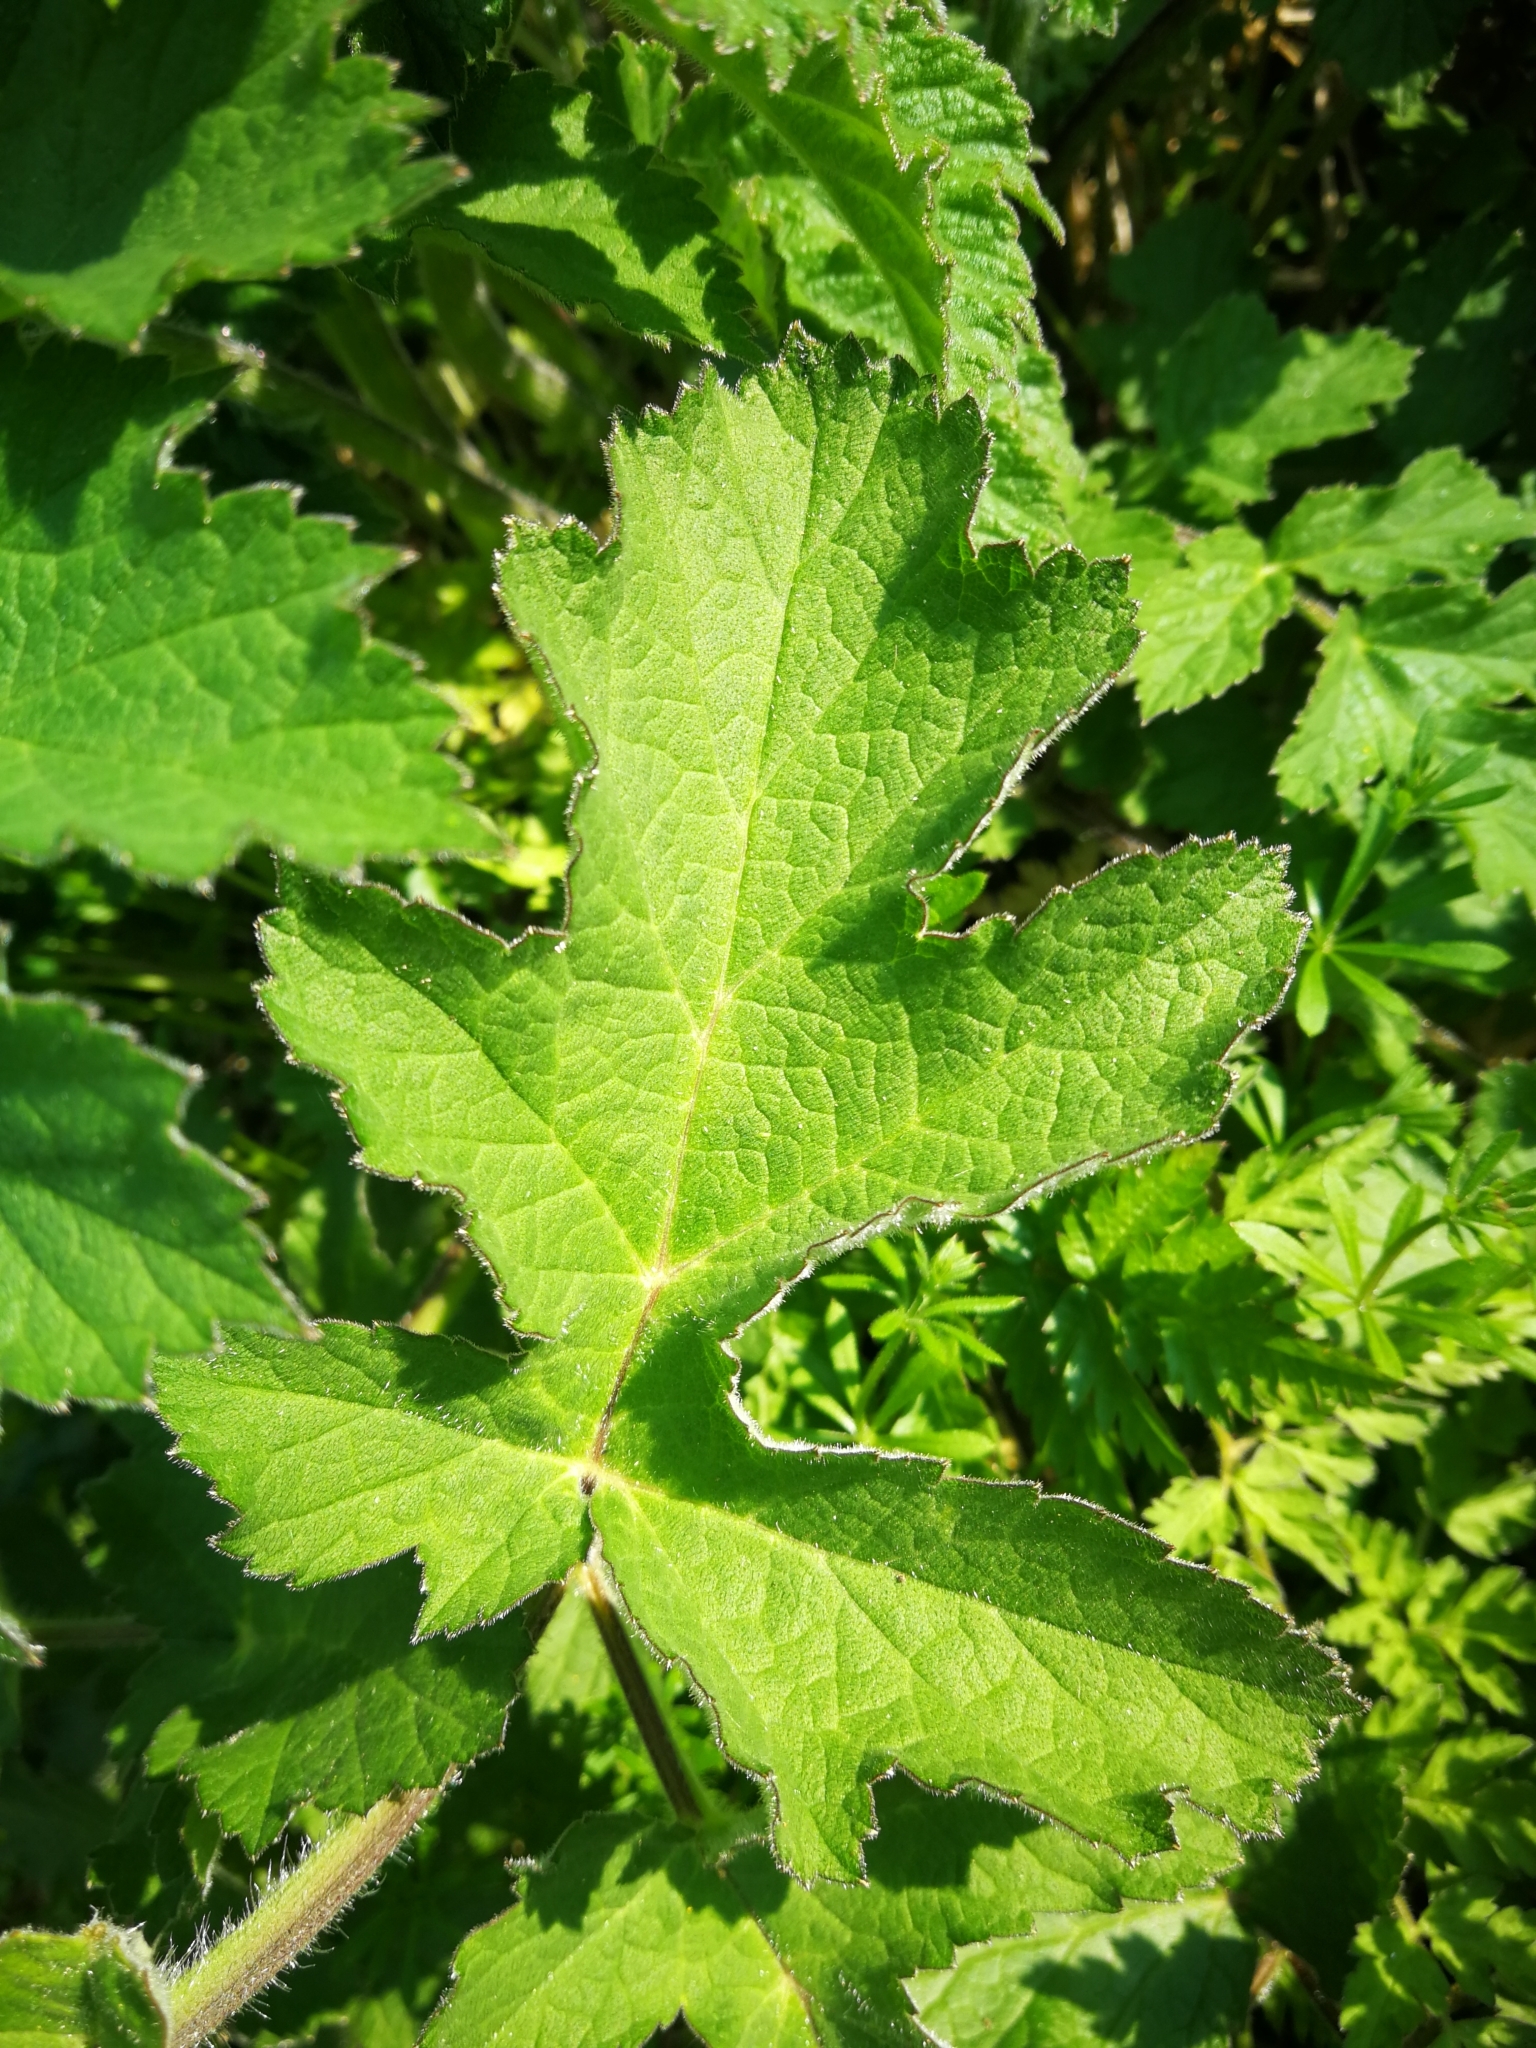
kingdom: Plantae
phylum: Tracheophyta
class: Magnoliopsida
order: Apiales
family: Apiaceae
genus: Heracleum
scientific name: Heracleum sphondylium
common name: Hogweed
